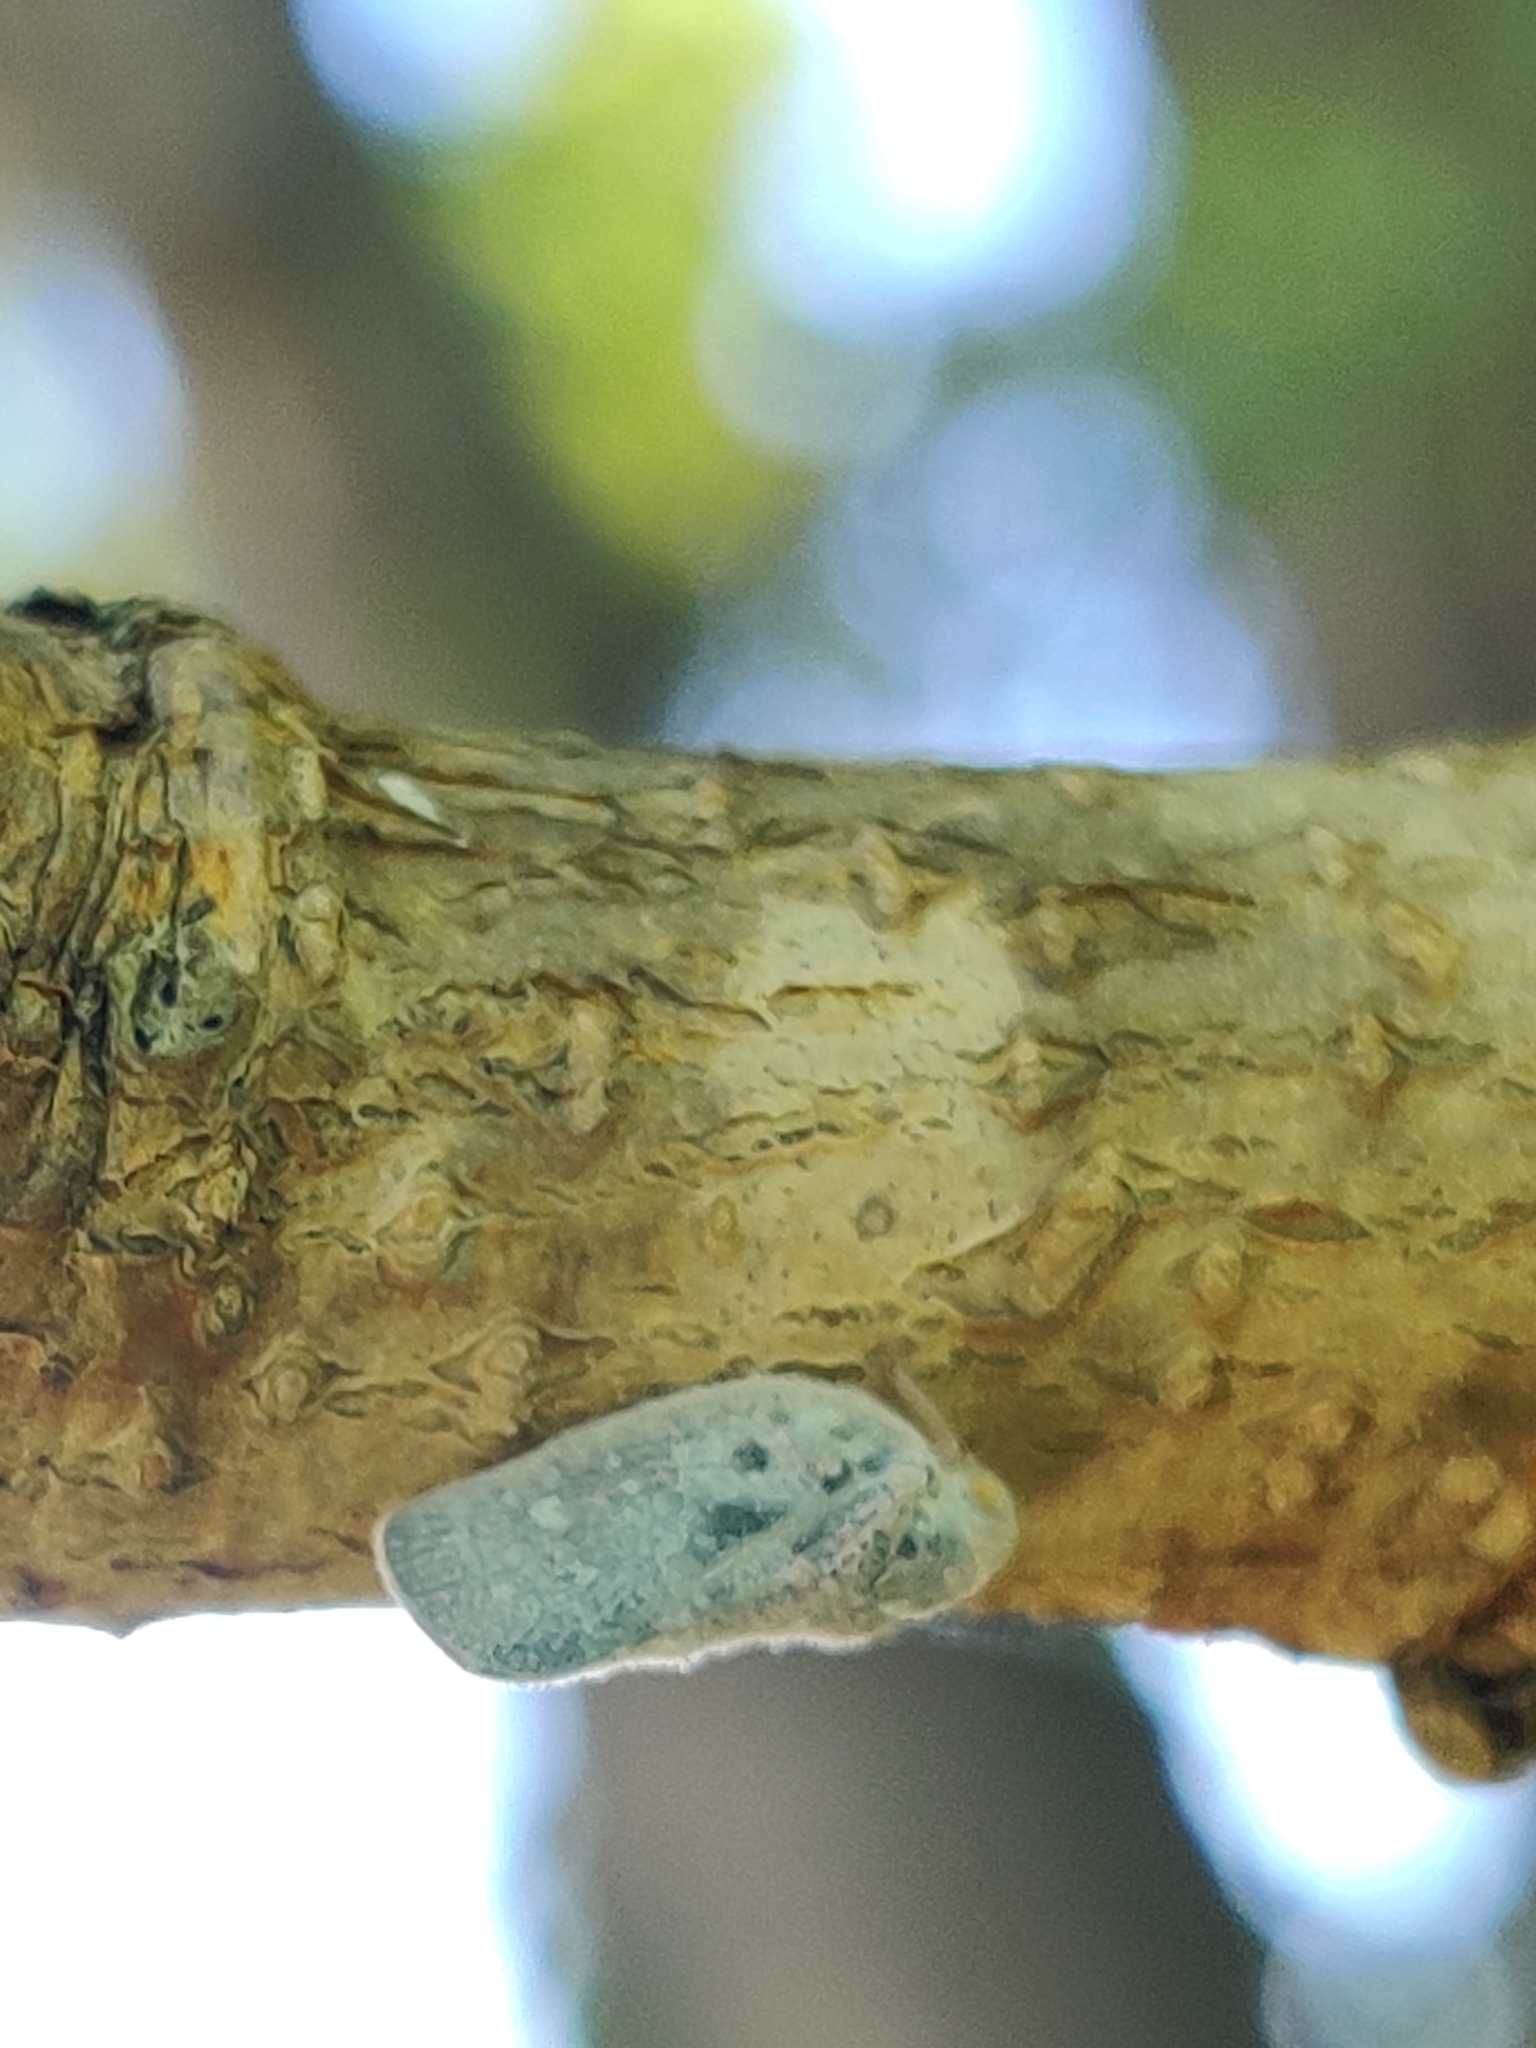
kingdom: Animalia
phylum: Arthropoda
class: Insecta
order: Hemiptera
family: Flatidae
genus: Metcalfa
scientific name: Metcalfa pruinosa
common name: Citrus flatid planthopper
